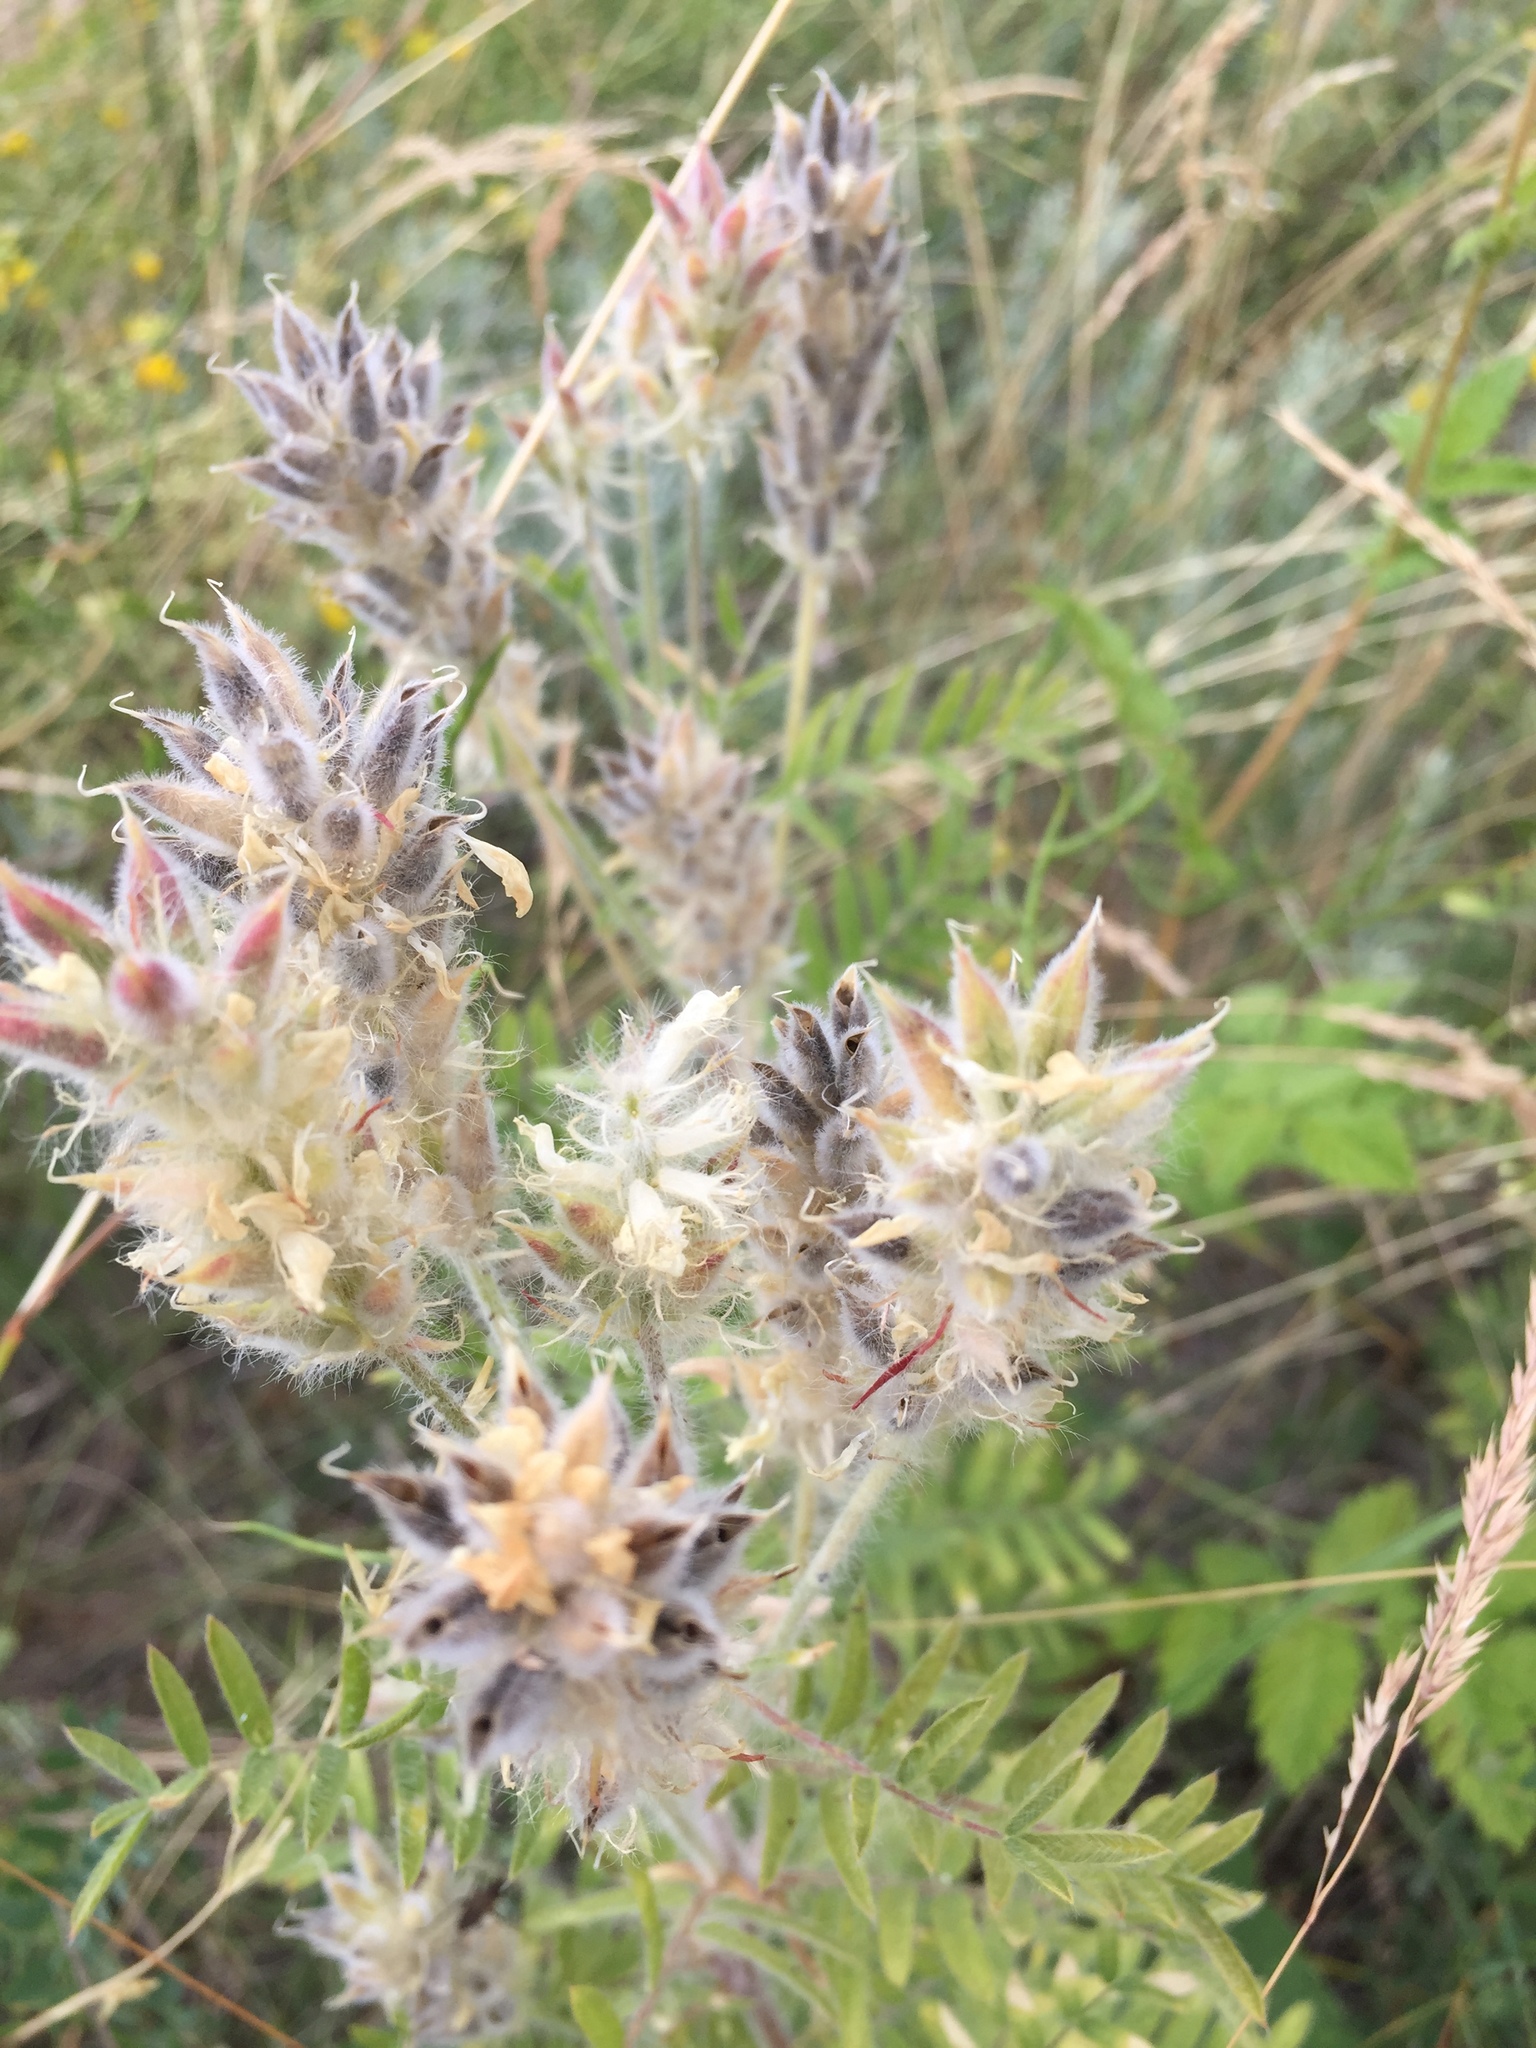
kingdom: Plantae
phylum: Tracheophyta
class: Magnoliopsida
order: Fabales
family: Fabaceae
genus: Oxytropis
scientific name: Oxytropis pilosa
